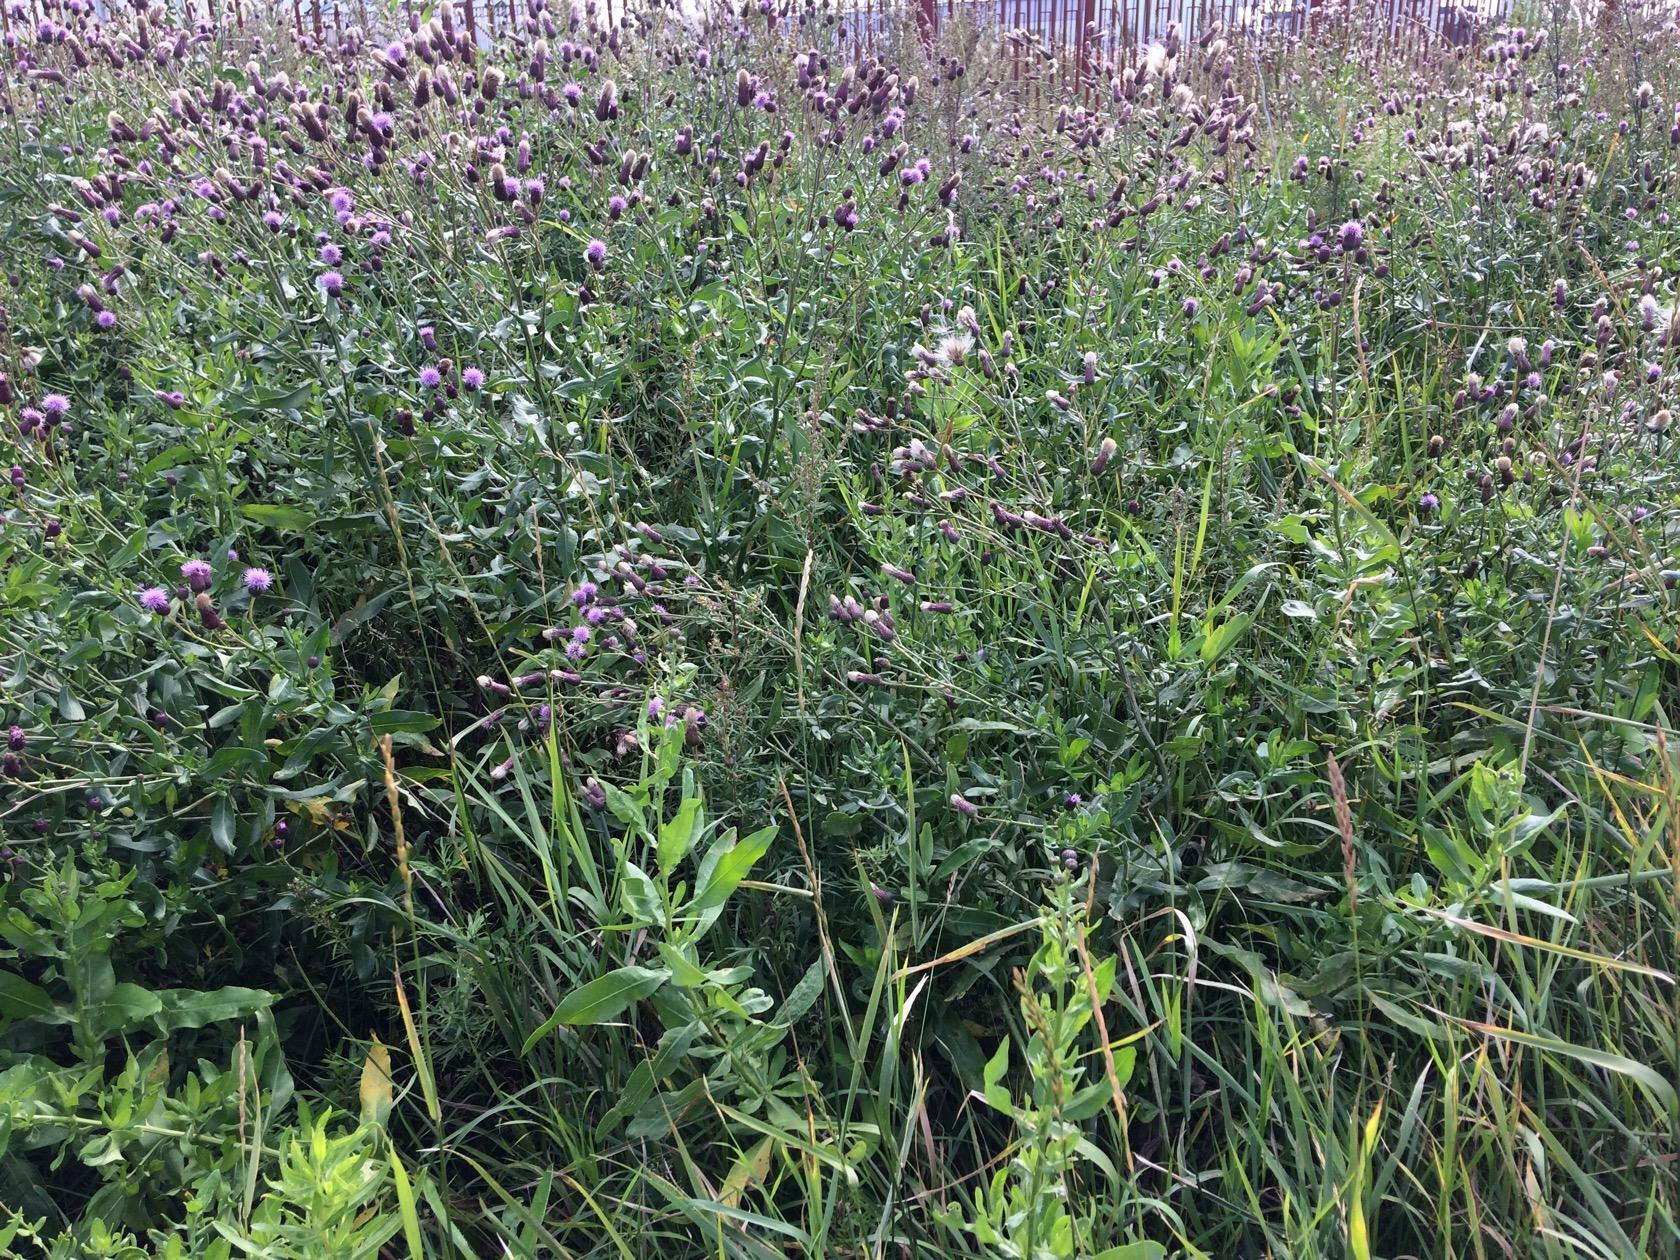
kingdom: Plantae
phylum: Tracheophyta
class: Magnoliopsida
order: Asterales
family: Asteraceae
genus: Cirsium
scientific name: Cirsium arvense
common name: Creeping thistle
